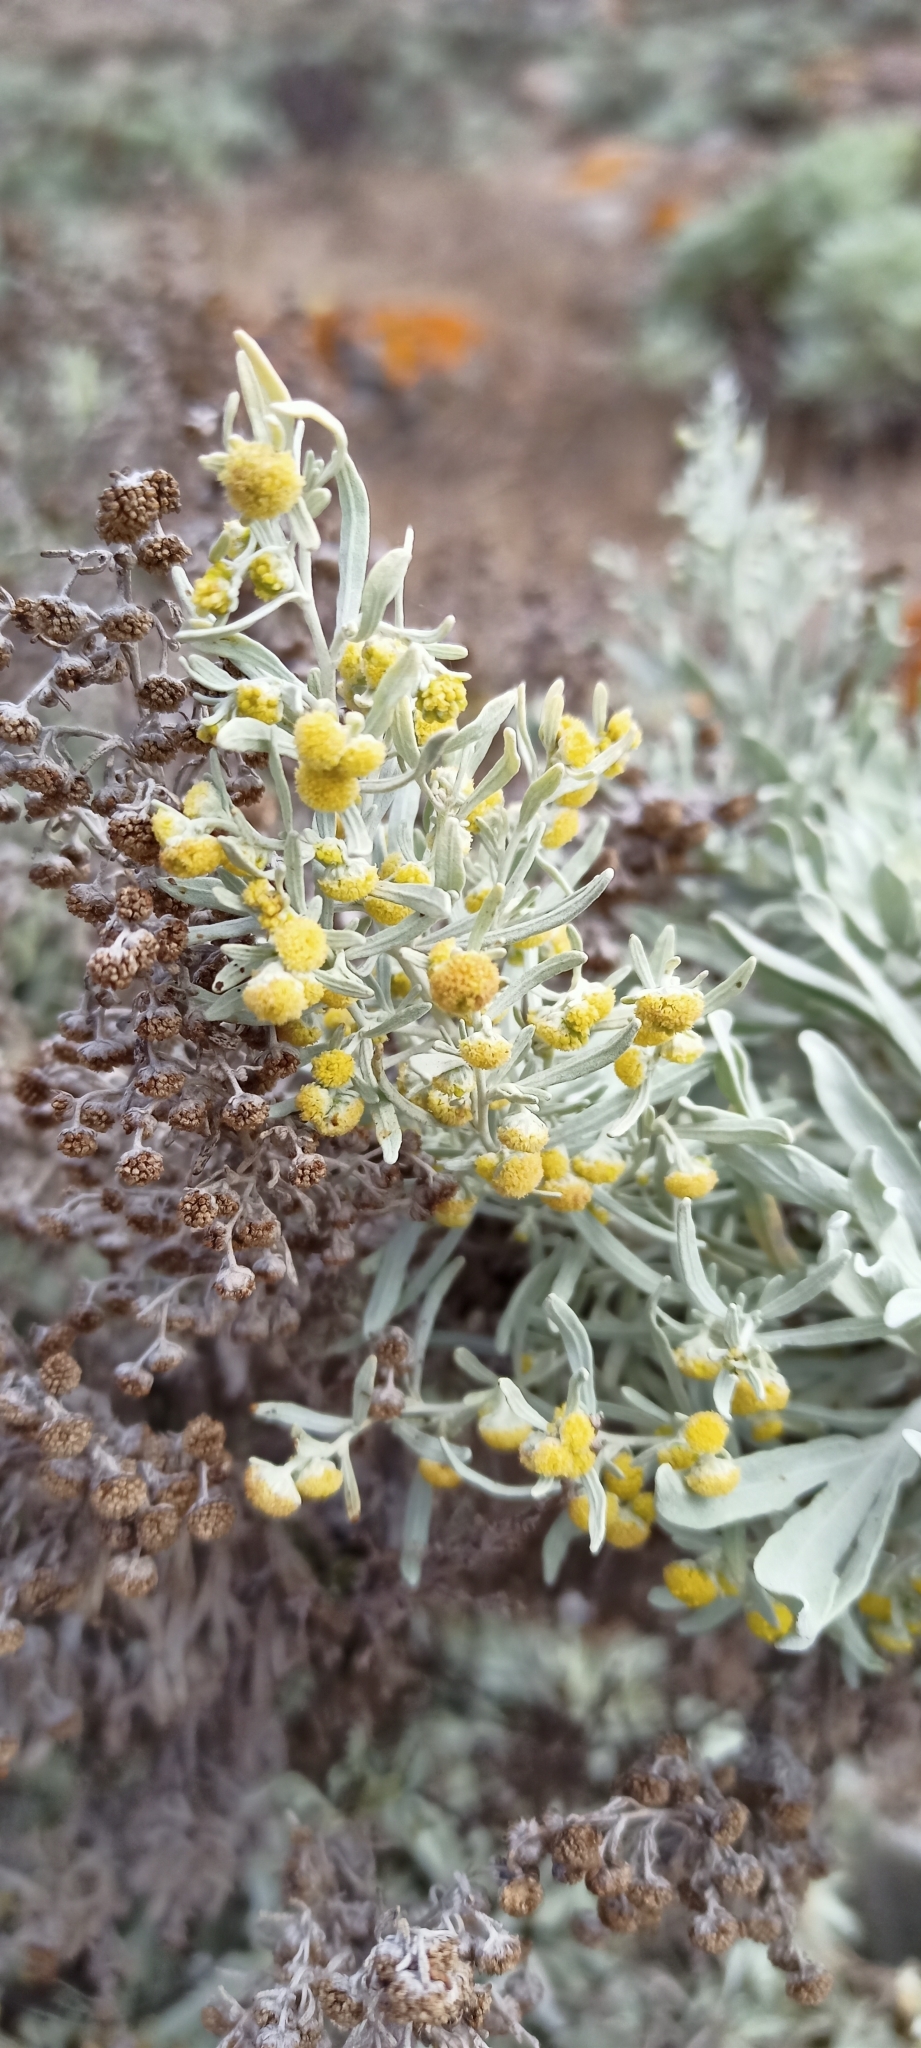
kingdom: Plantae
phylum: Tracheophyta
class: Magnoliopsida
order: Asterales
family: Asteraceae
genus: Artemisia
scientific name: Artemisia argentea
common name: Madeira wormwood
